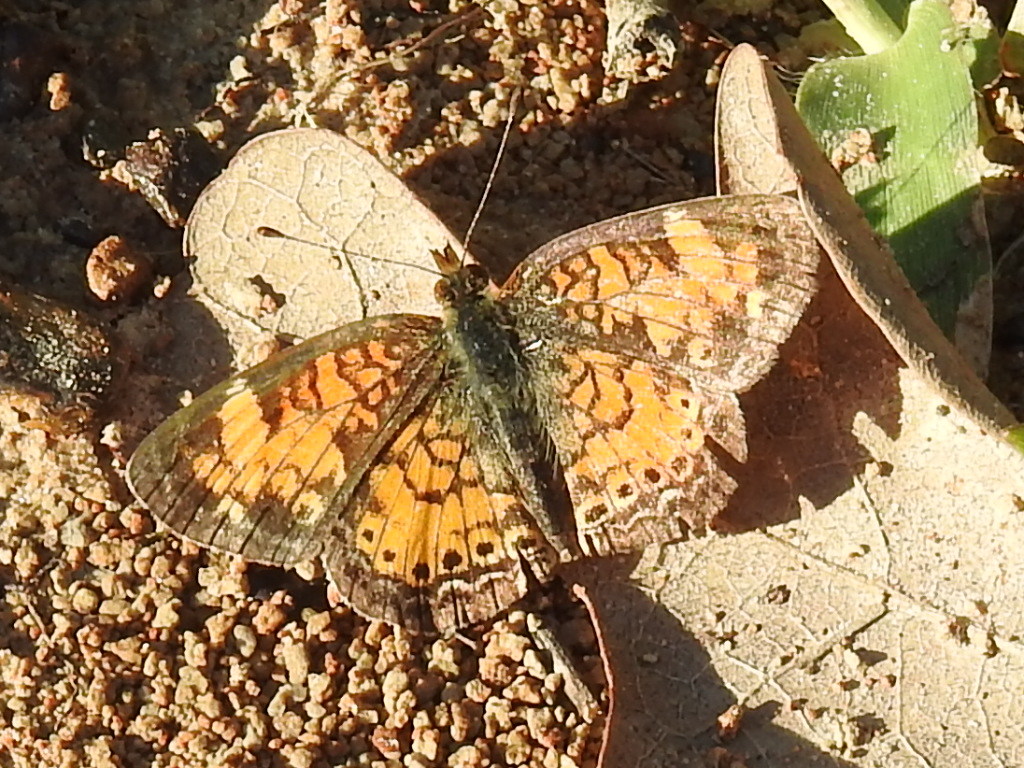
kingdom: Animalia
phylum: Arthropoda
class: Insecta
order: Lepidoptera
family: Nymphalidae
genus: Phyciodes
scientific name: Phyciodes tharos
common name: Pearl crescent
